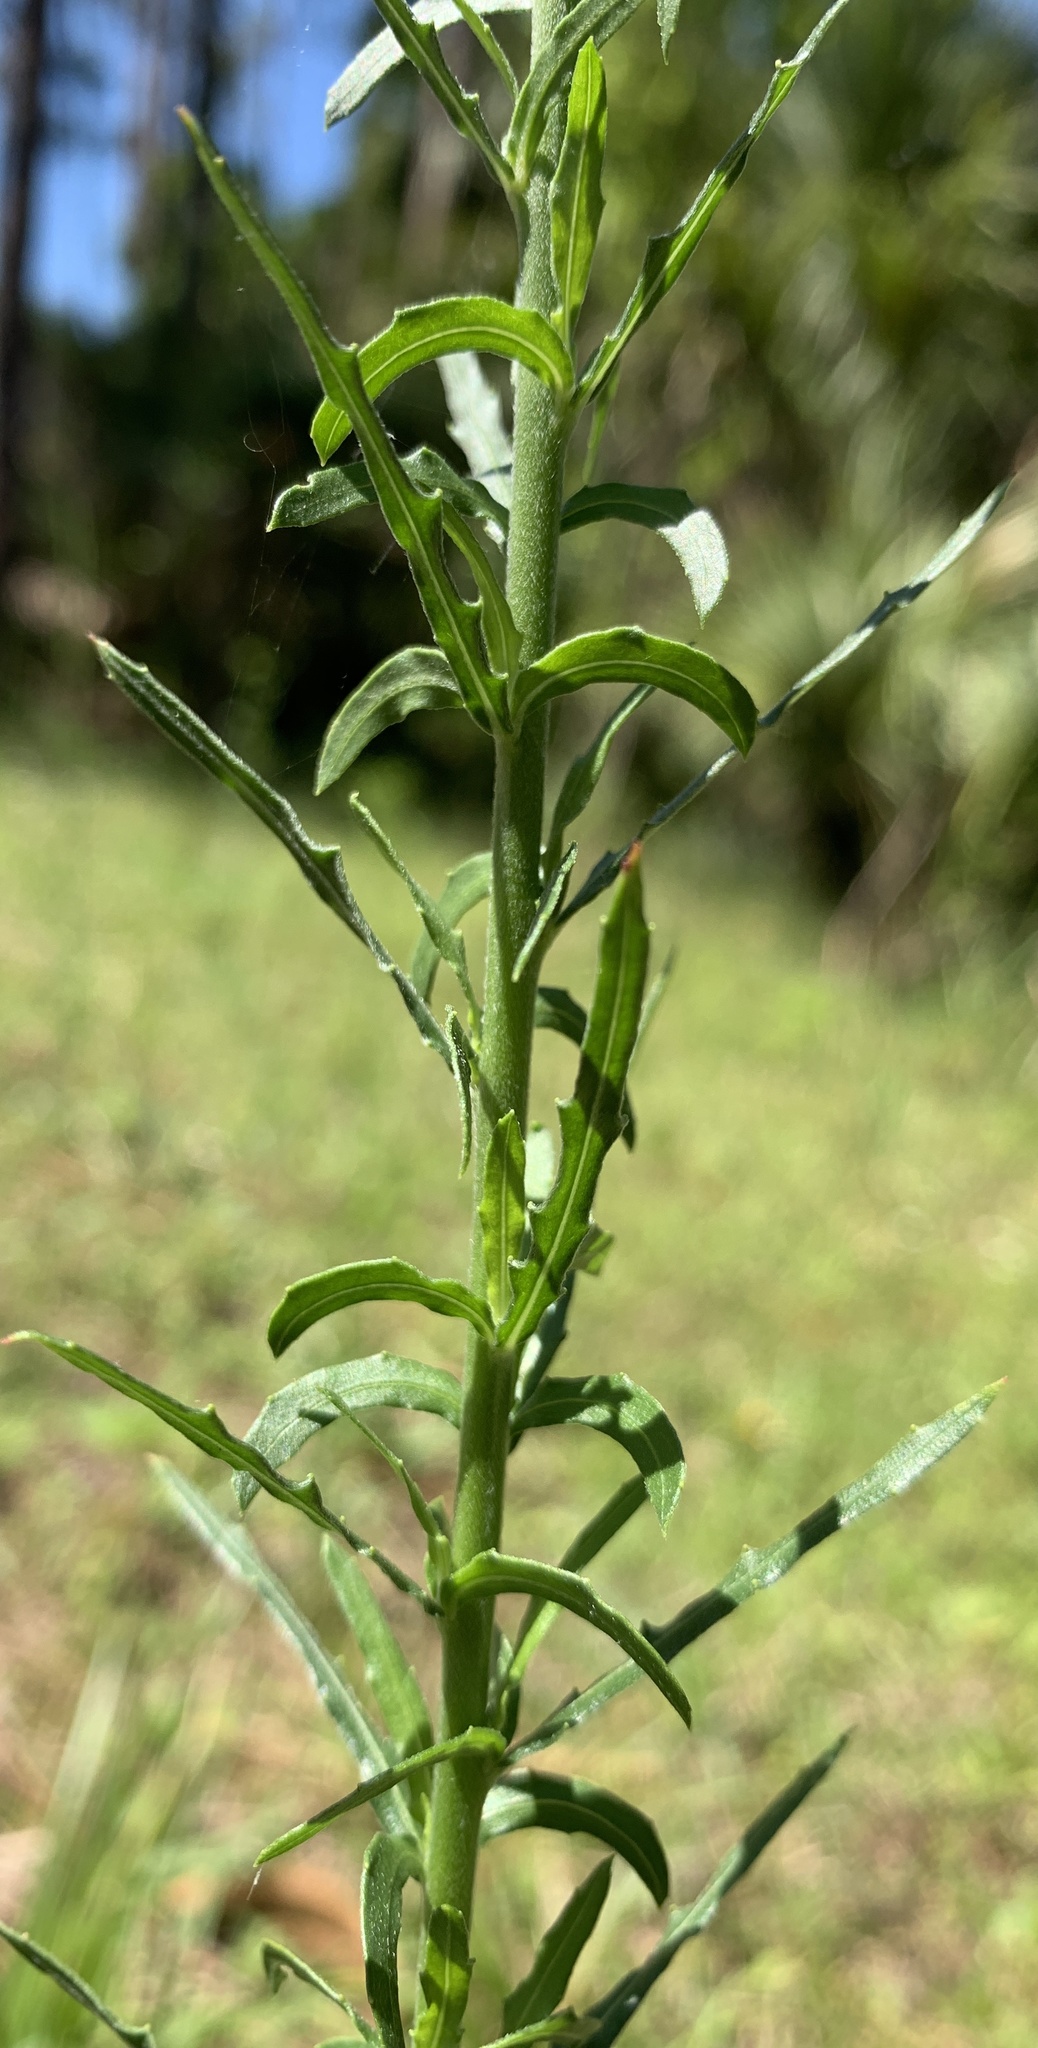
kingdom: Plantae
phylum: Tracheophyta
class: Magnoliopsida
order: Myrtales
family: Onagraceae
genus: Oenothera
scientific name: Oenothera simulans
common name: Southern beeblossom
